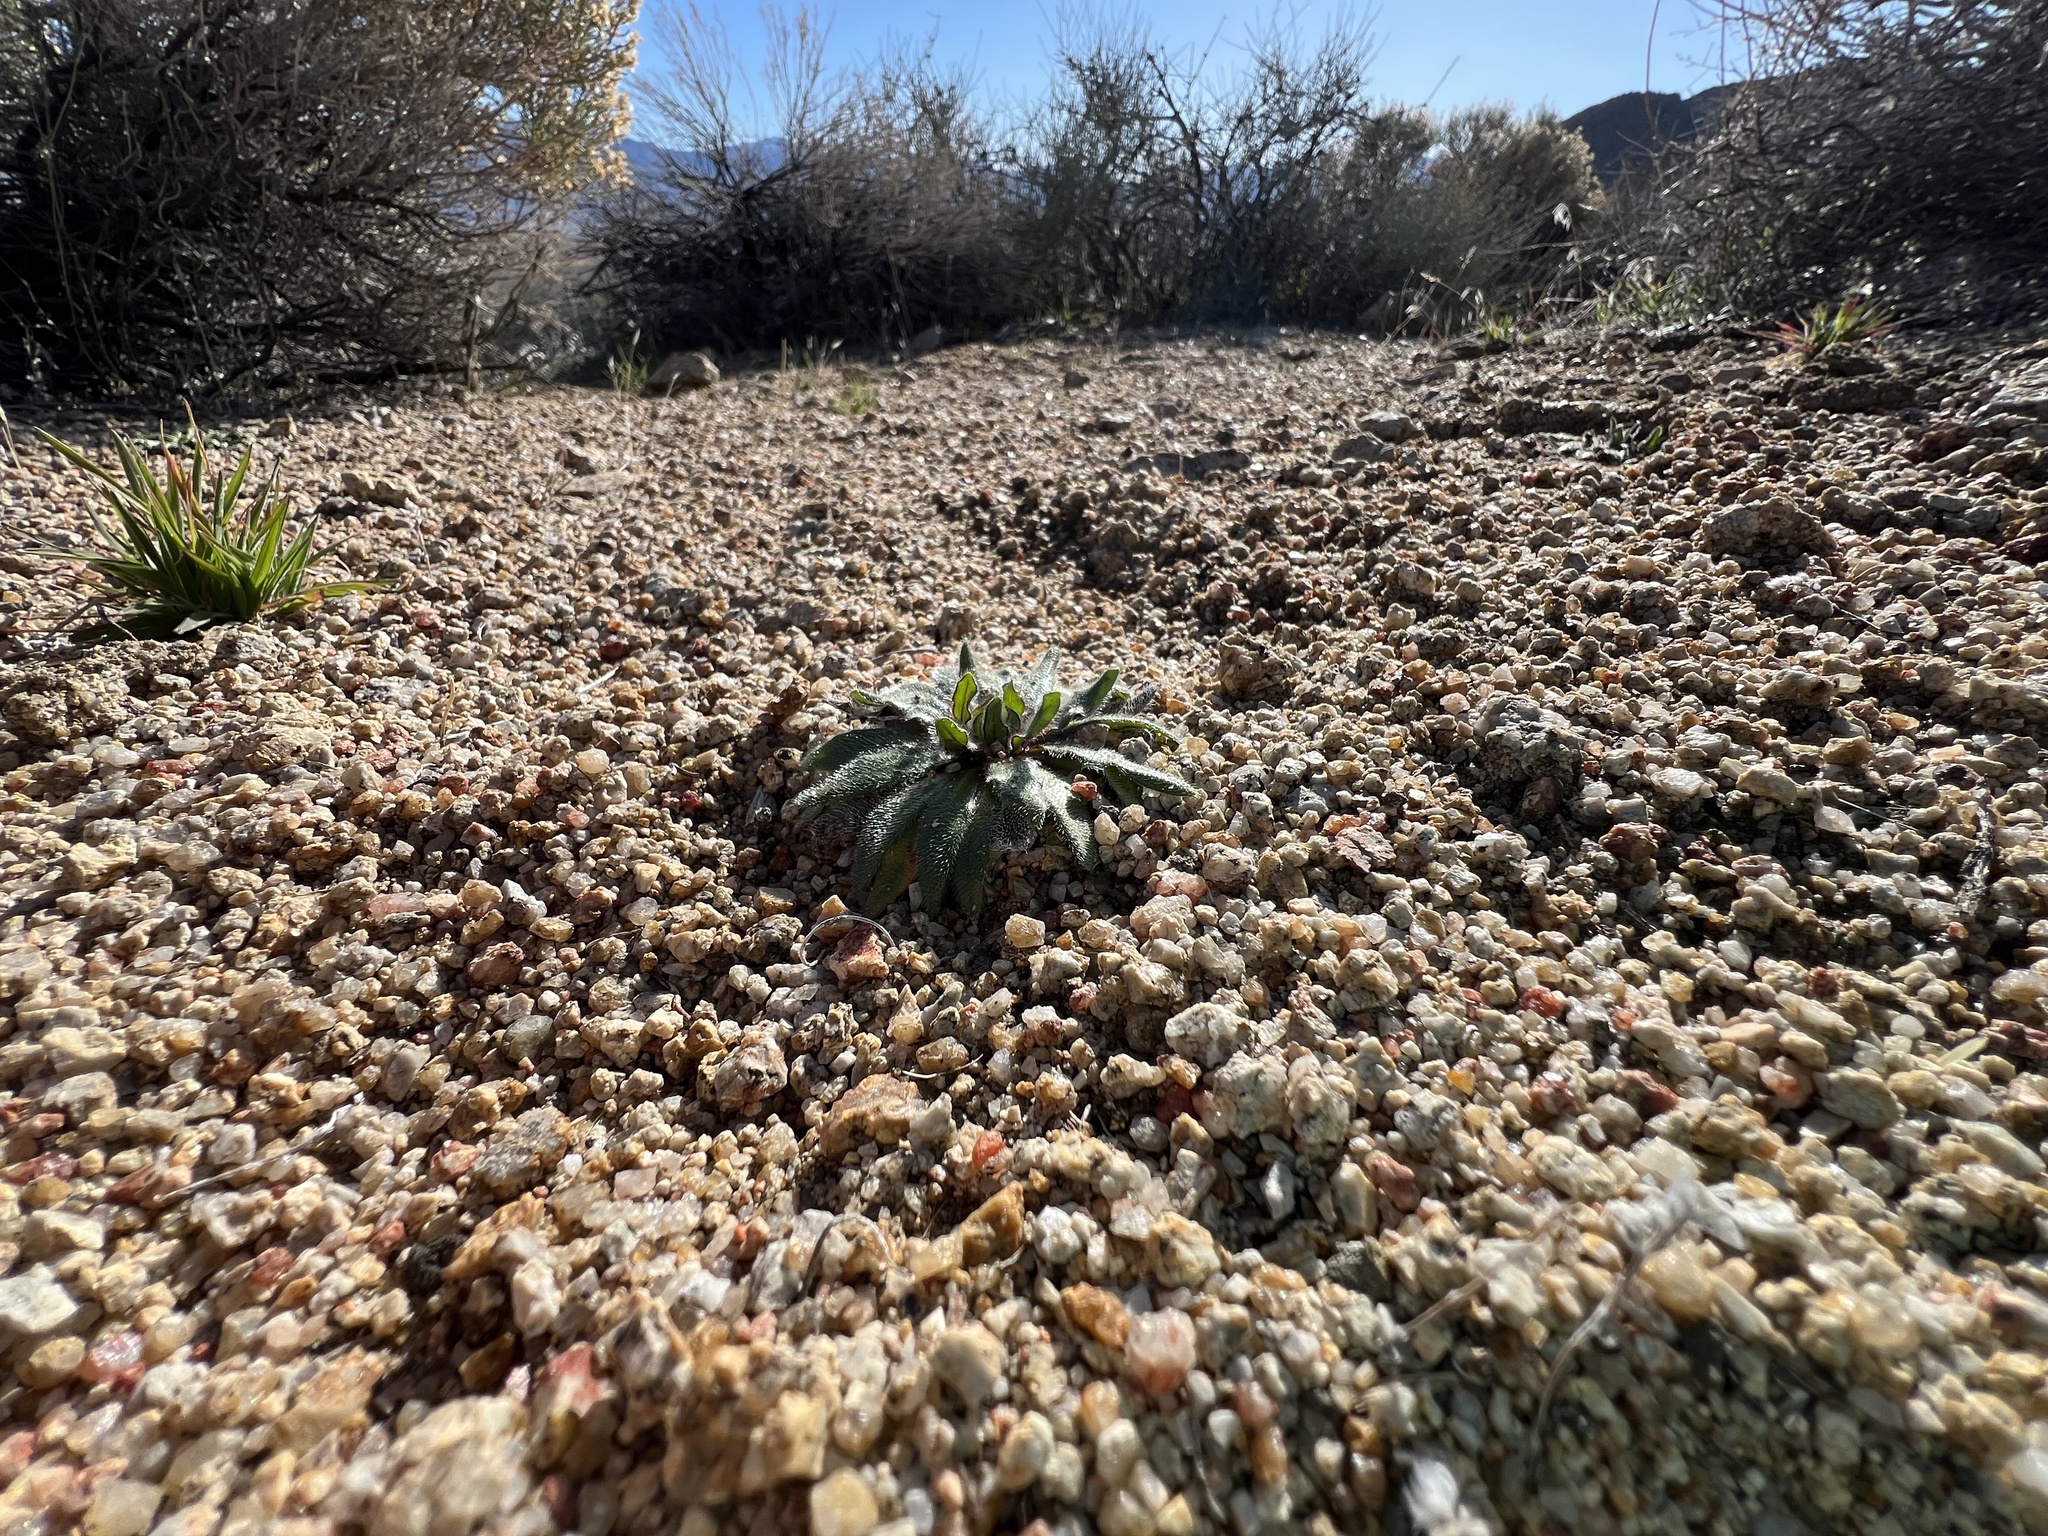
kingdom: Plantae
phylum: Tracheophyta
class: Magnoliopsida
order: Boraginales
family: Boraginaceae
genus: Plagiobothrys
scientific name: Plagiobothrys arizonicus
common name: Arizona popcorn-flower
